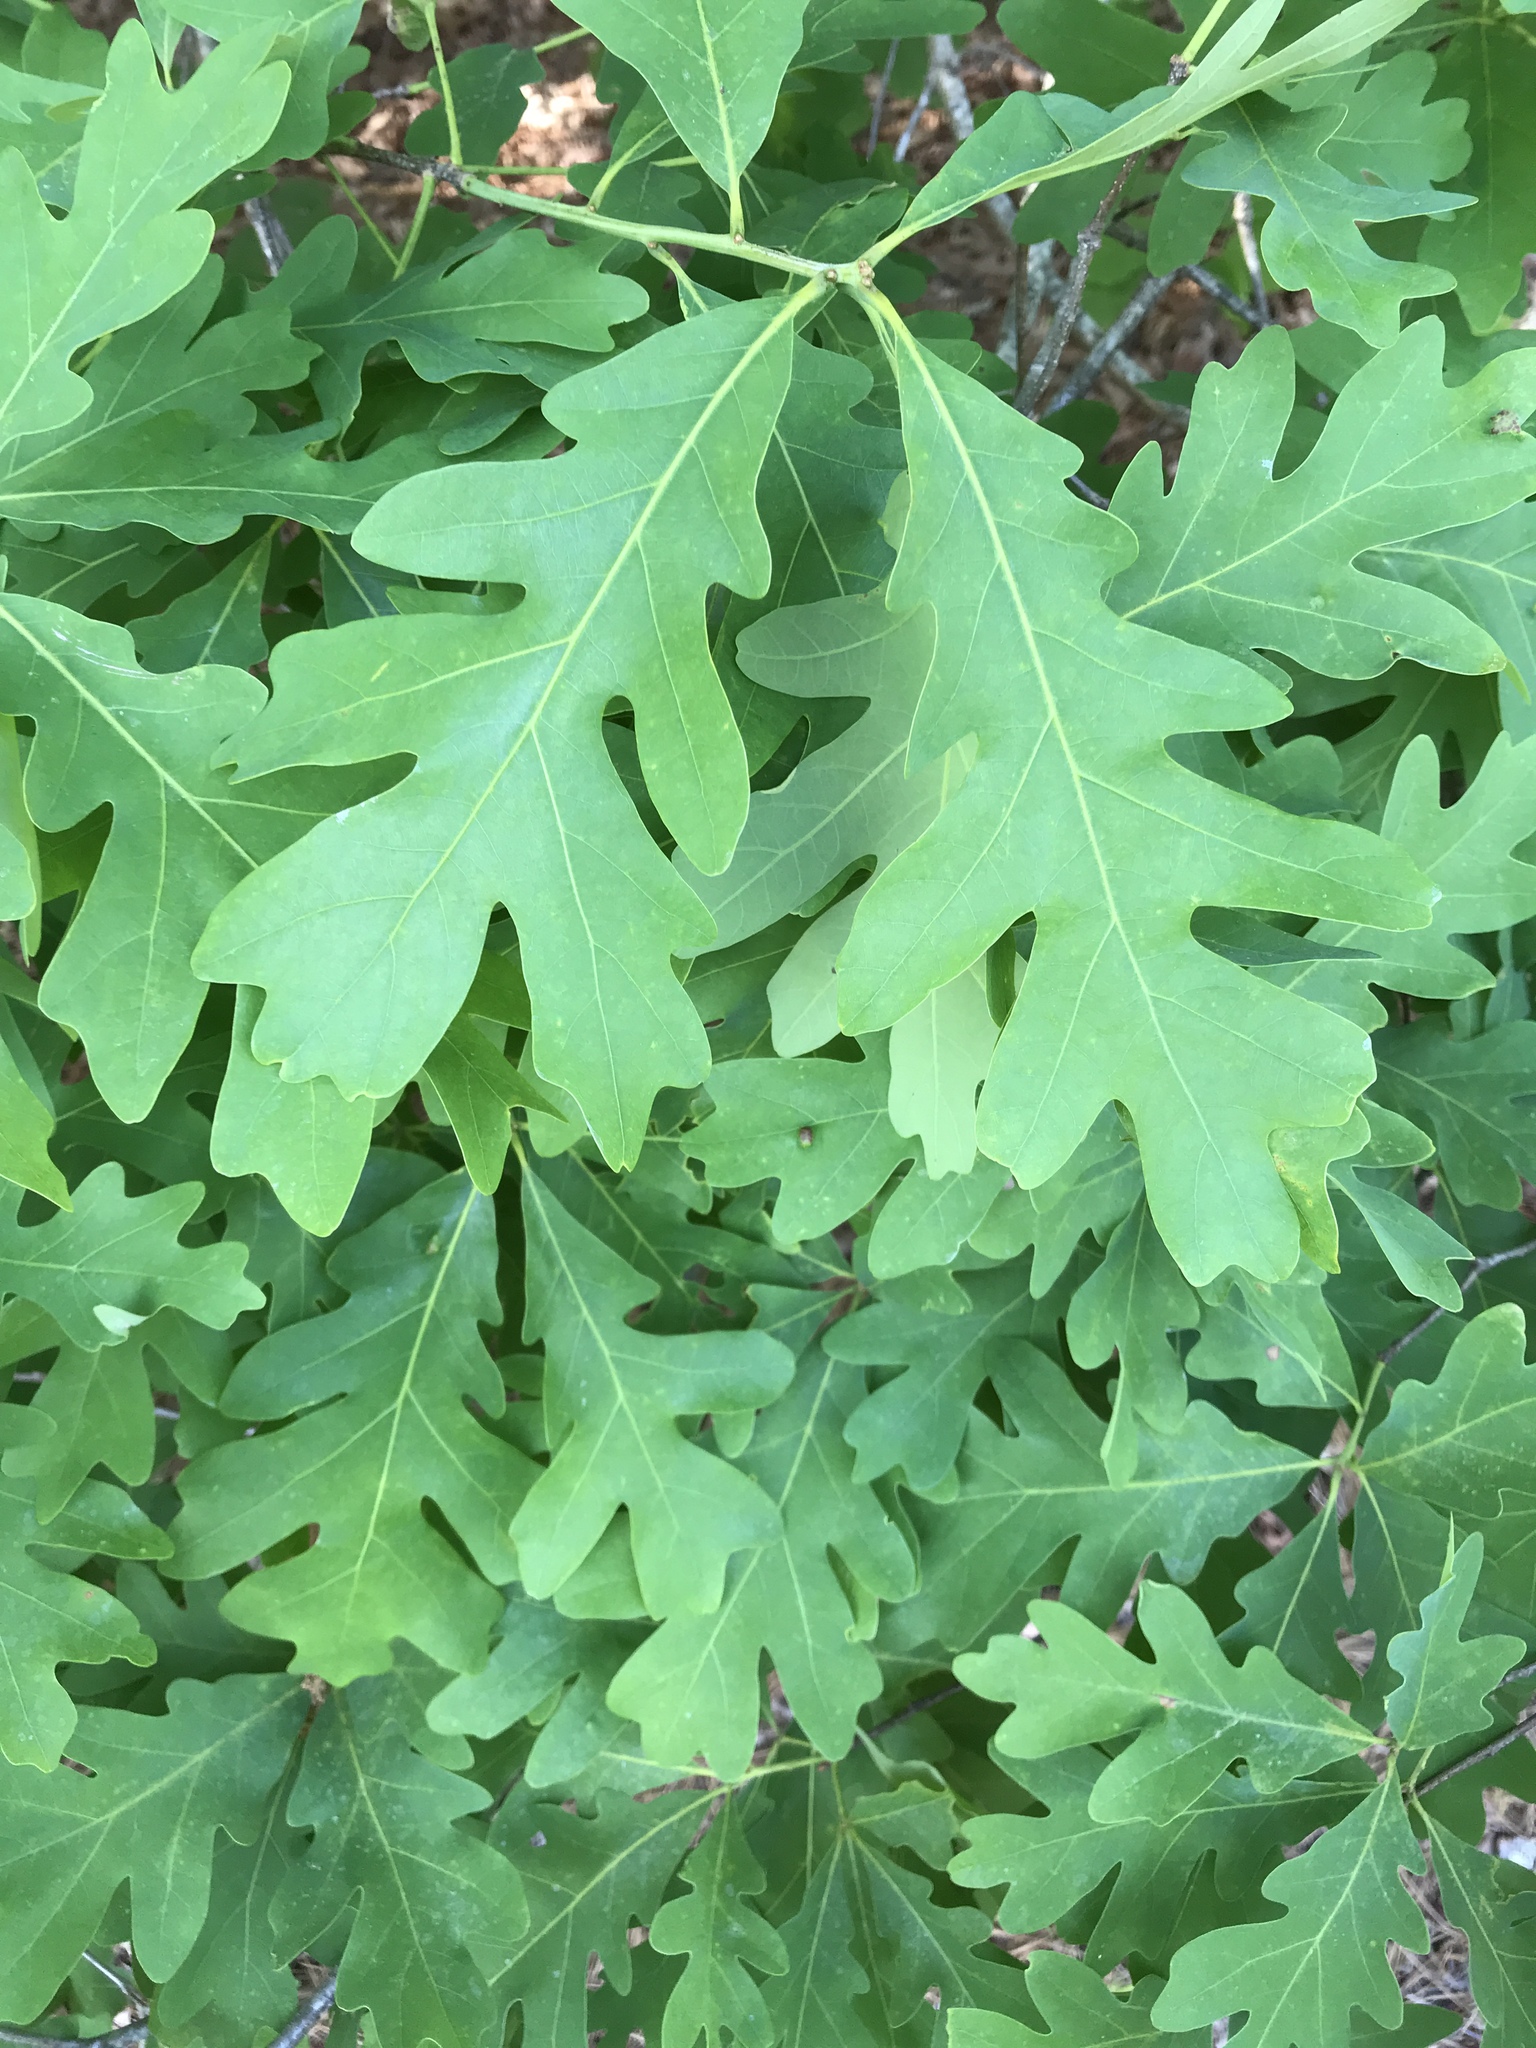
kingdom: Plantae
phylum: Tracheophyta
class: Magnoliopsida
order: Fagales
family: Fagaceae
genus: Quercus
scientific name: Quercus alba
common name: White oak
